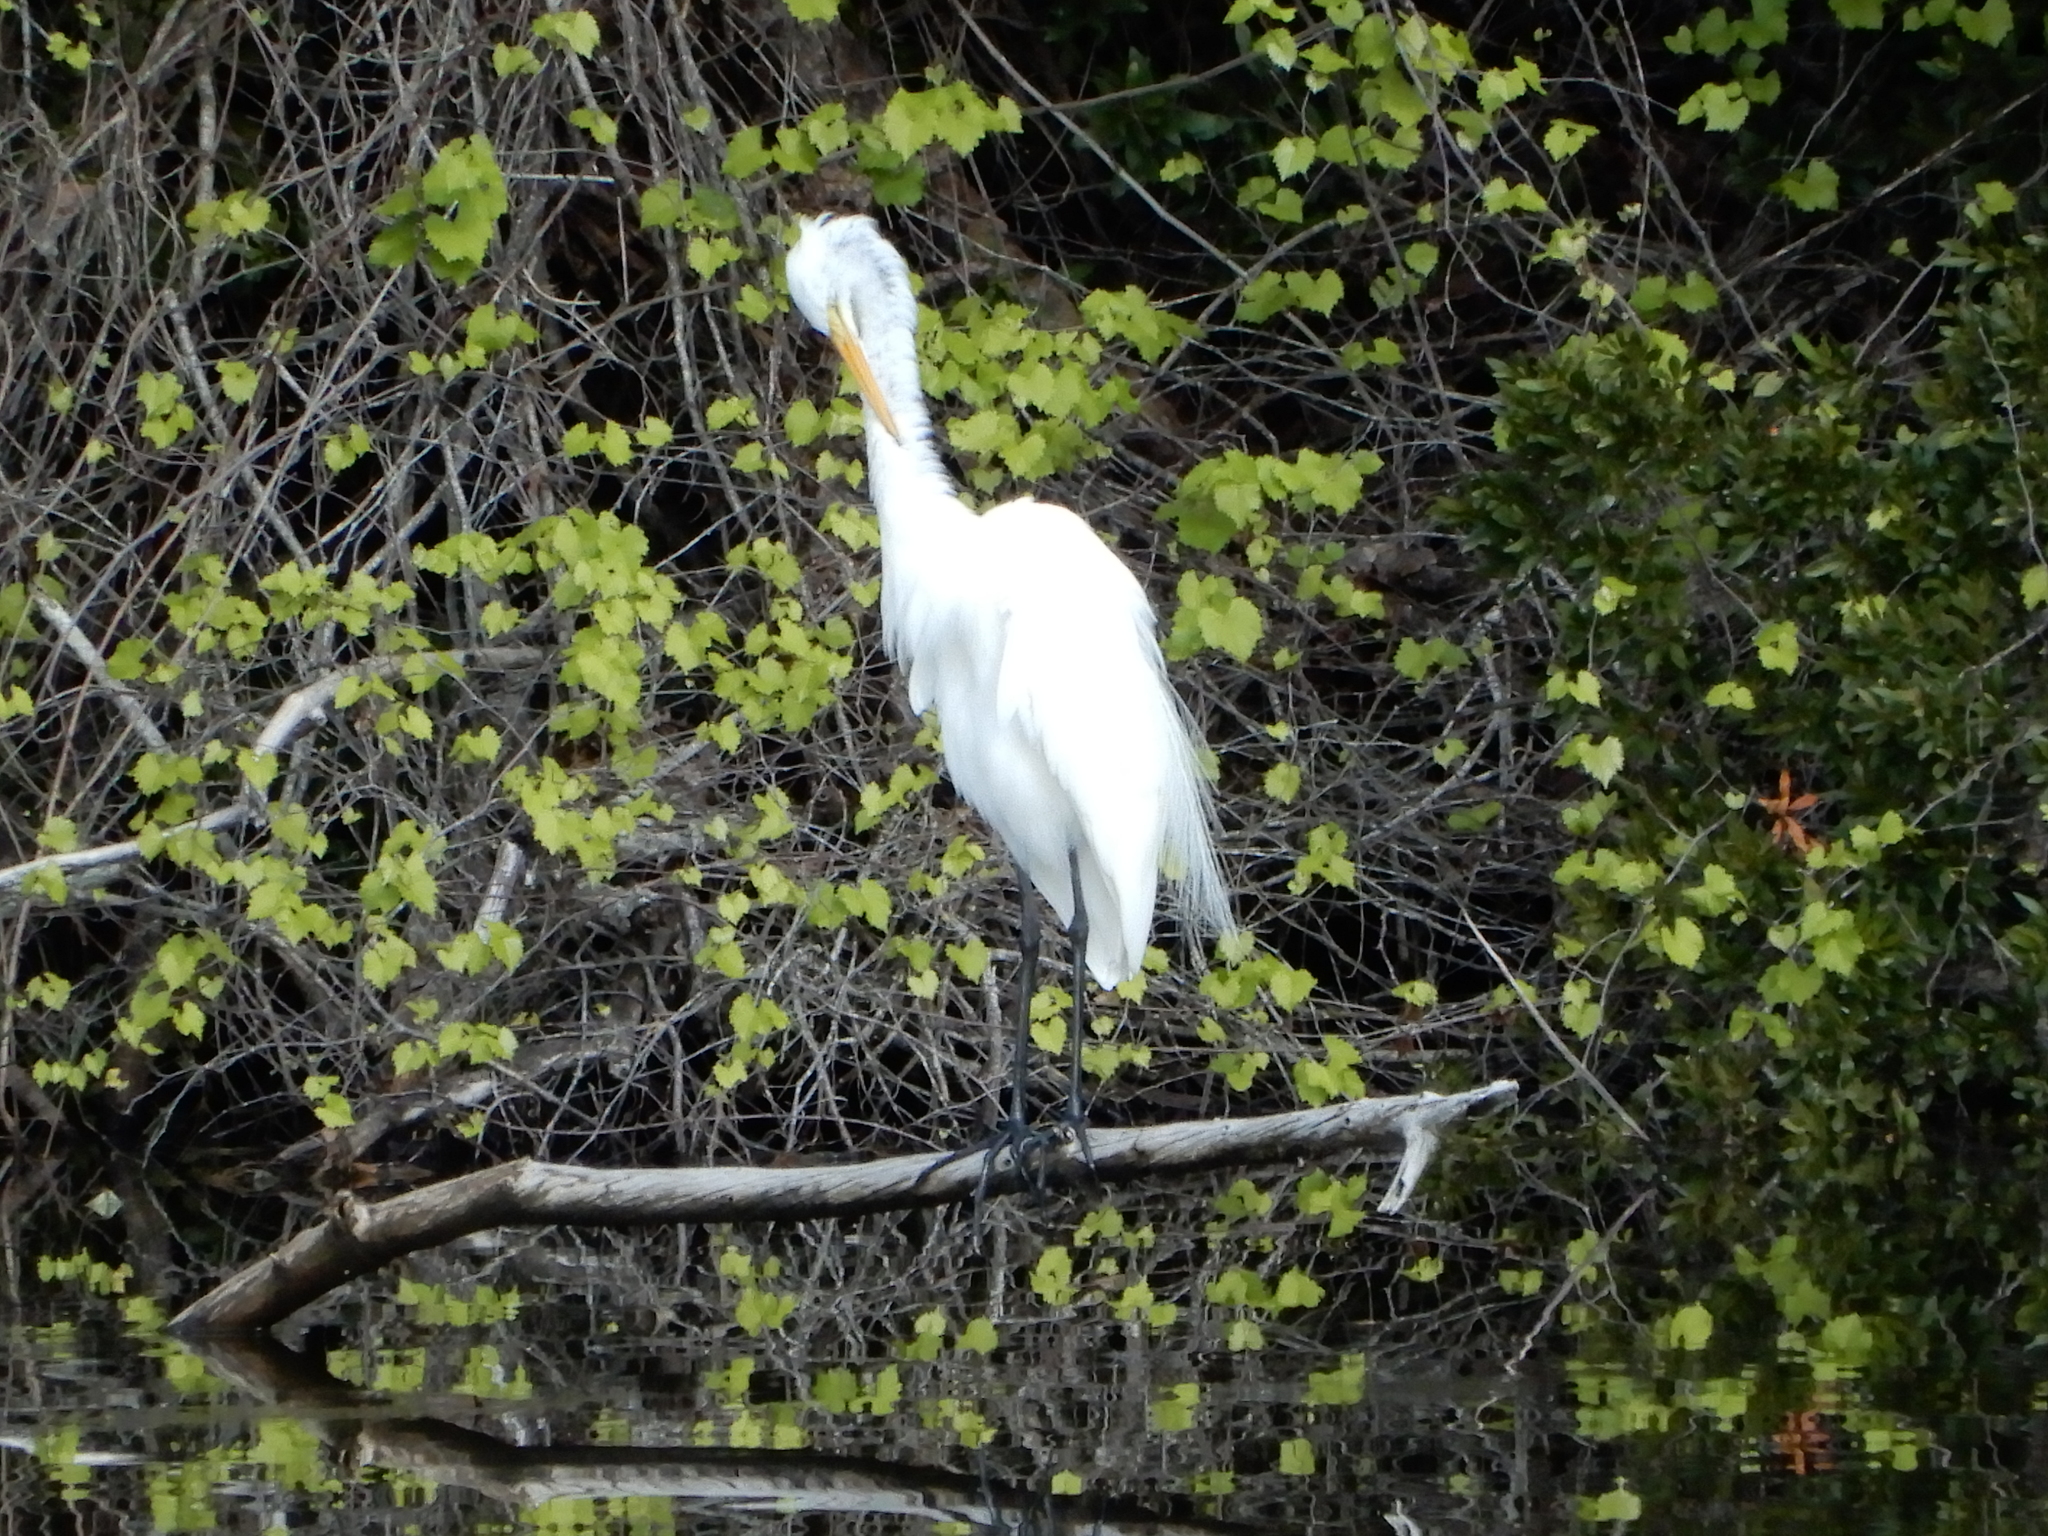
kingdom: Animalia
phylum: Chordata
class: Aves
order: Pelecaniformes
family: Ardeidae
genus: Ardea
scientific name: Ardea alba
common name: Great egret
